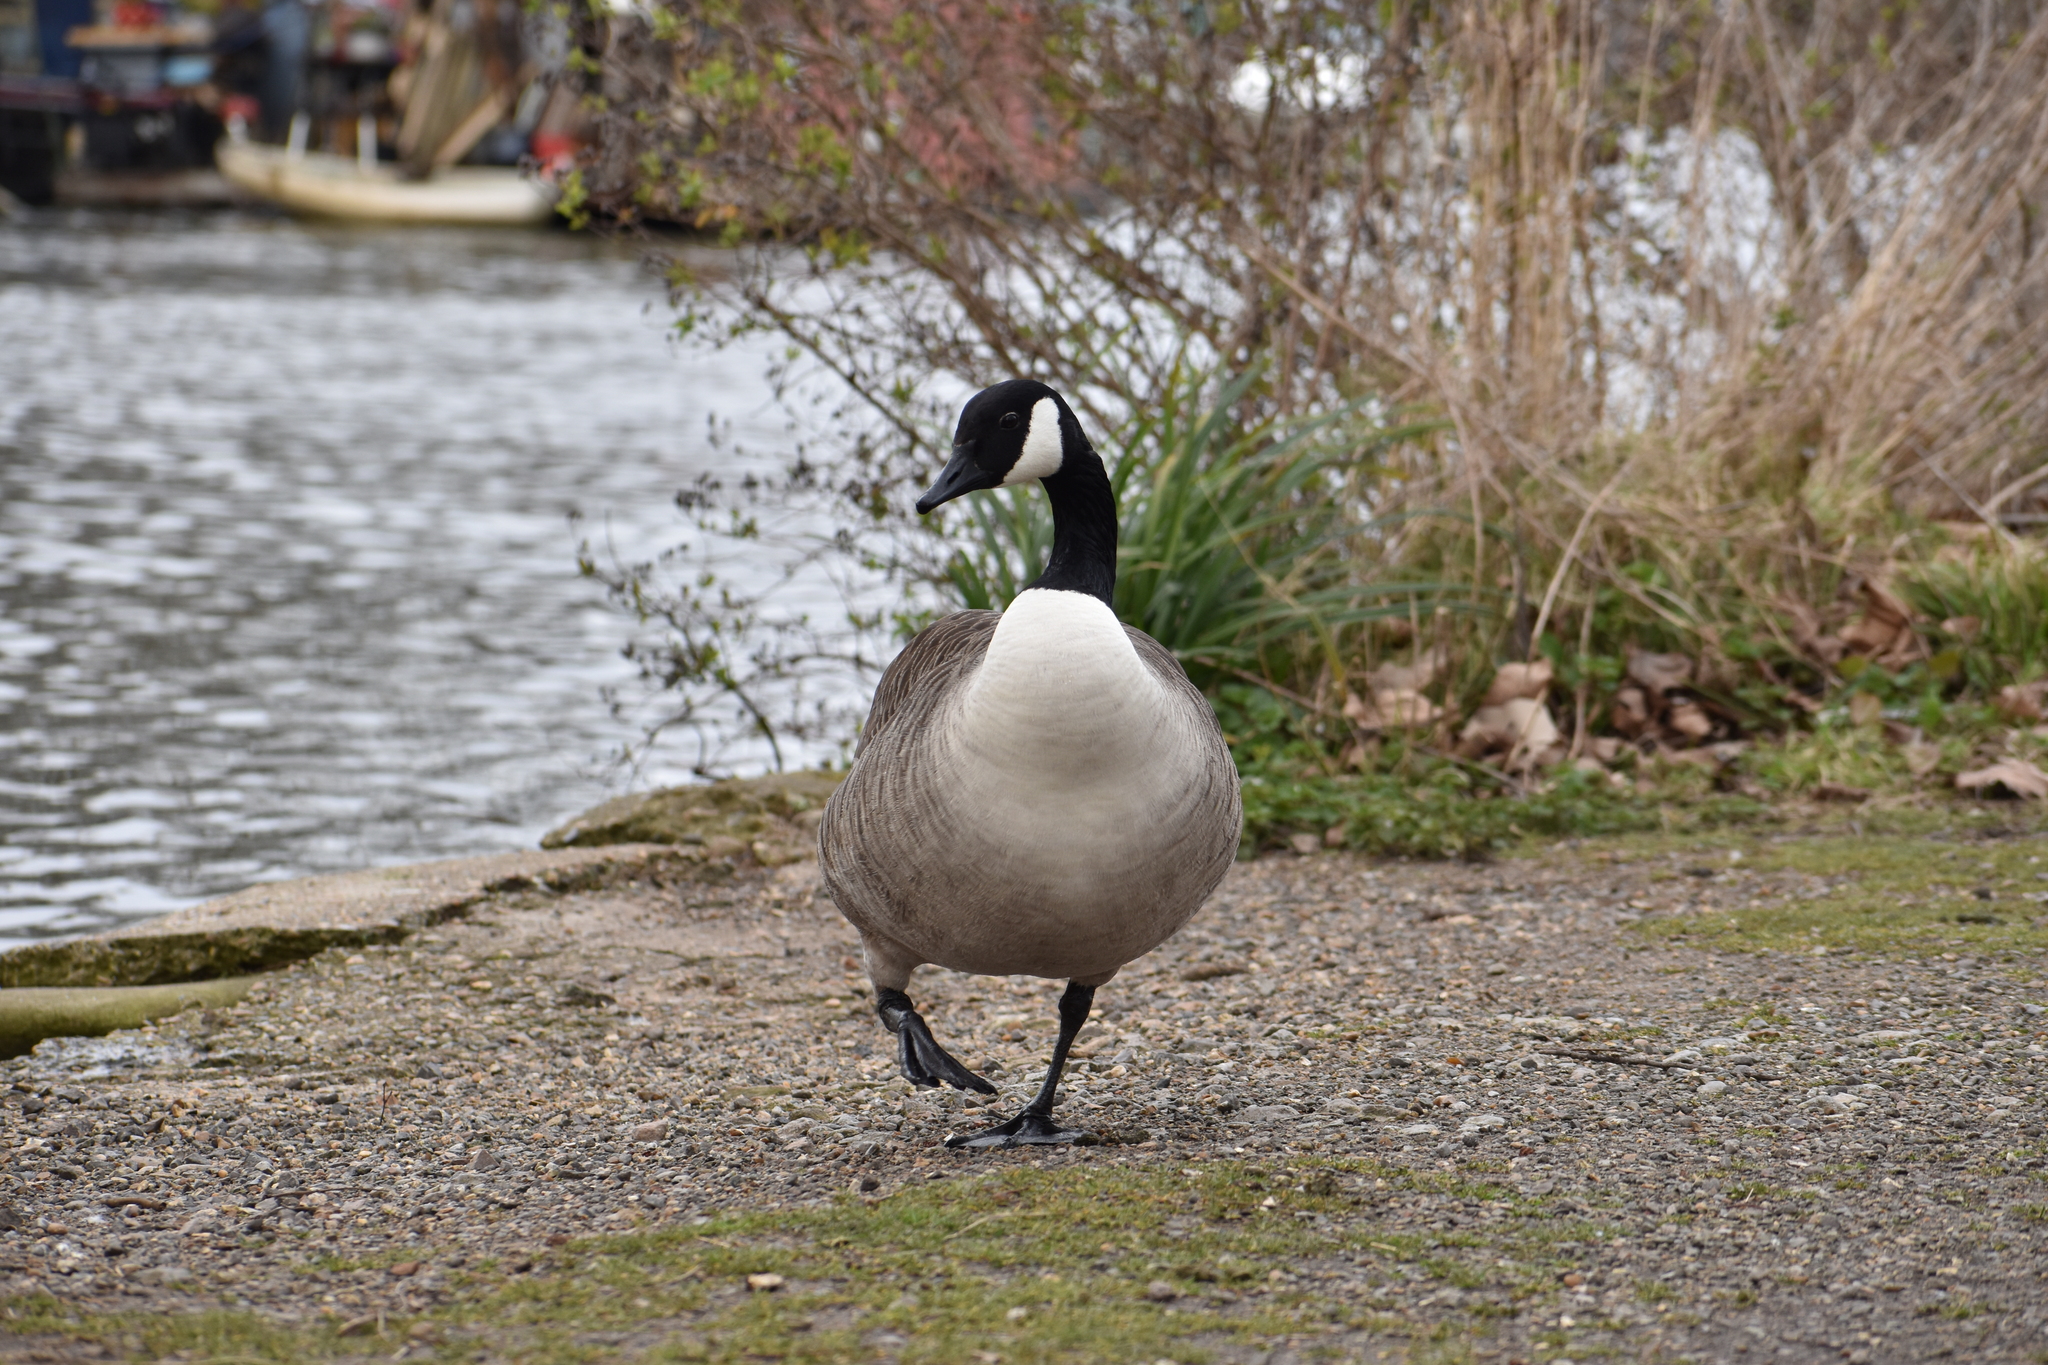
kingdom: Animalia
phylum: Chordata
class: Aves
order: Anseriformes
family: Anatidae
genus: Branta
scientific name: Branta canadensis
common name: Canada goose
